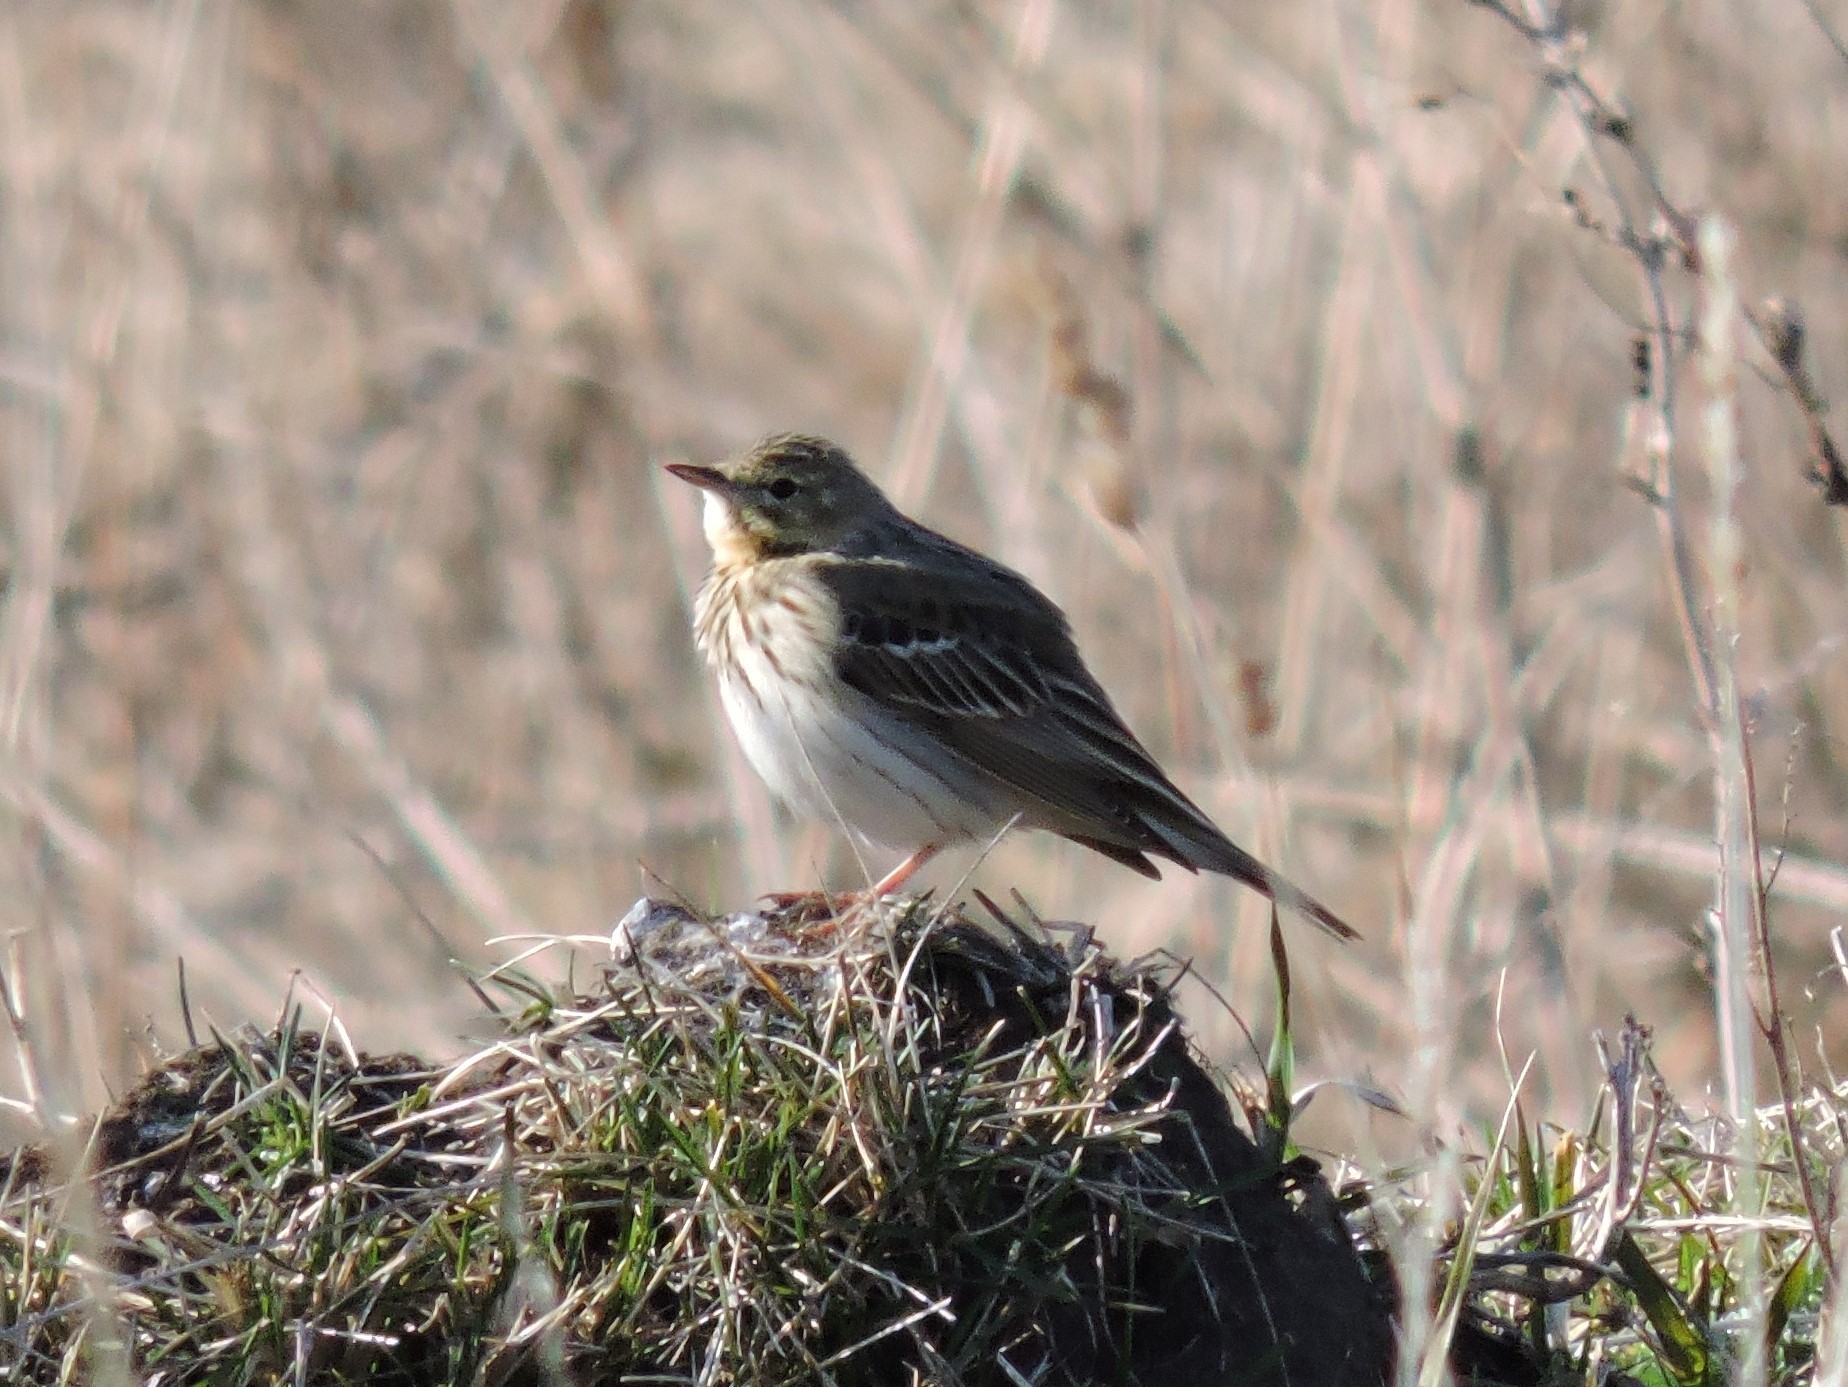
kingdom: Animalia
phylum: Chordata
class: Aves
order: Passeriformes
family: Motacillidae
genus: Anthus
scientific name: Anthus trivialis
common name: Tree pipit
